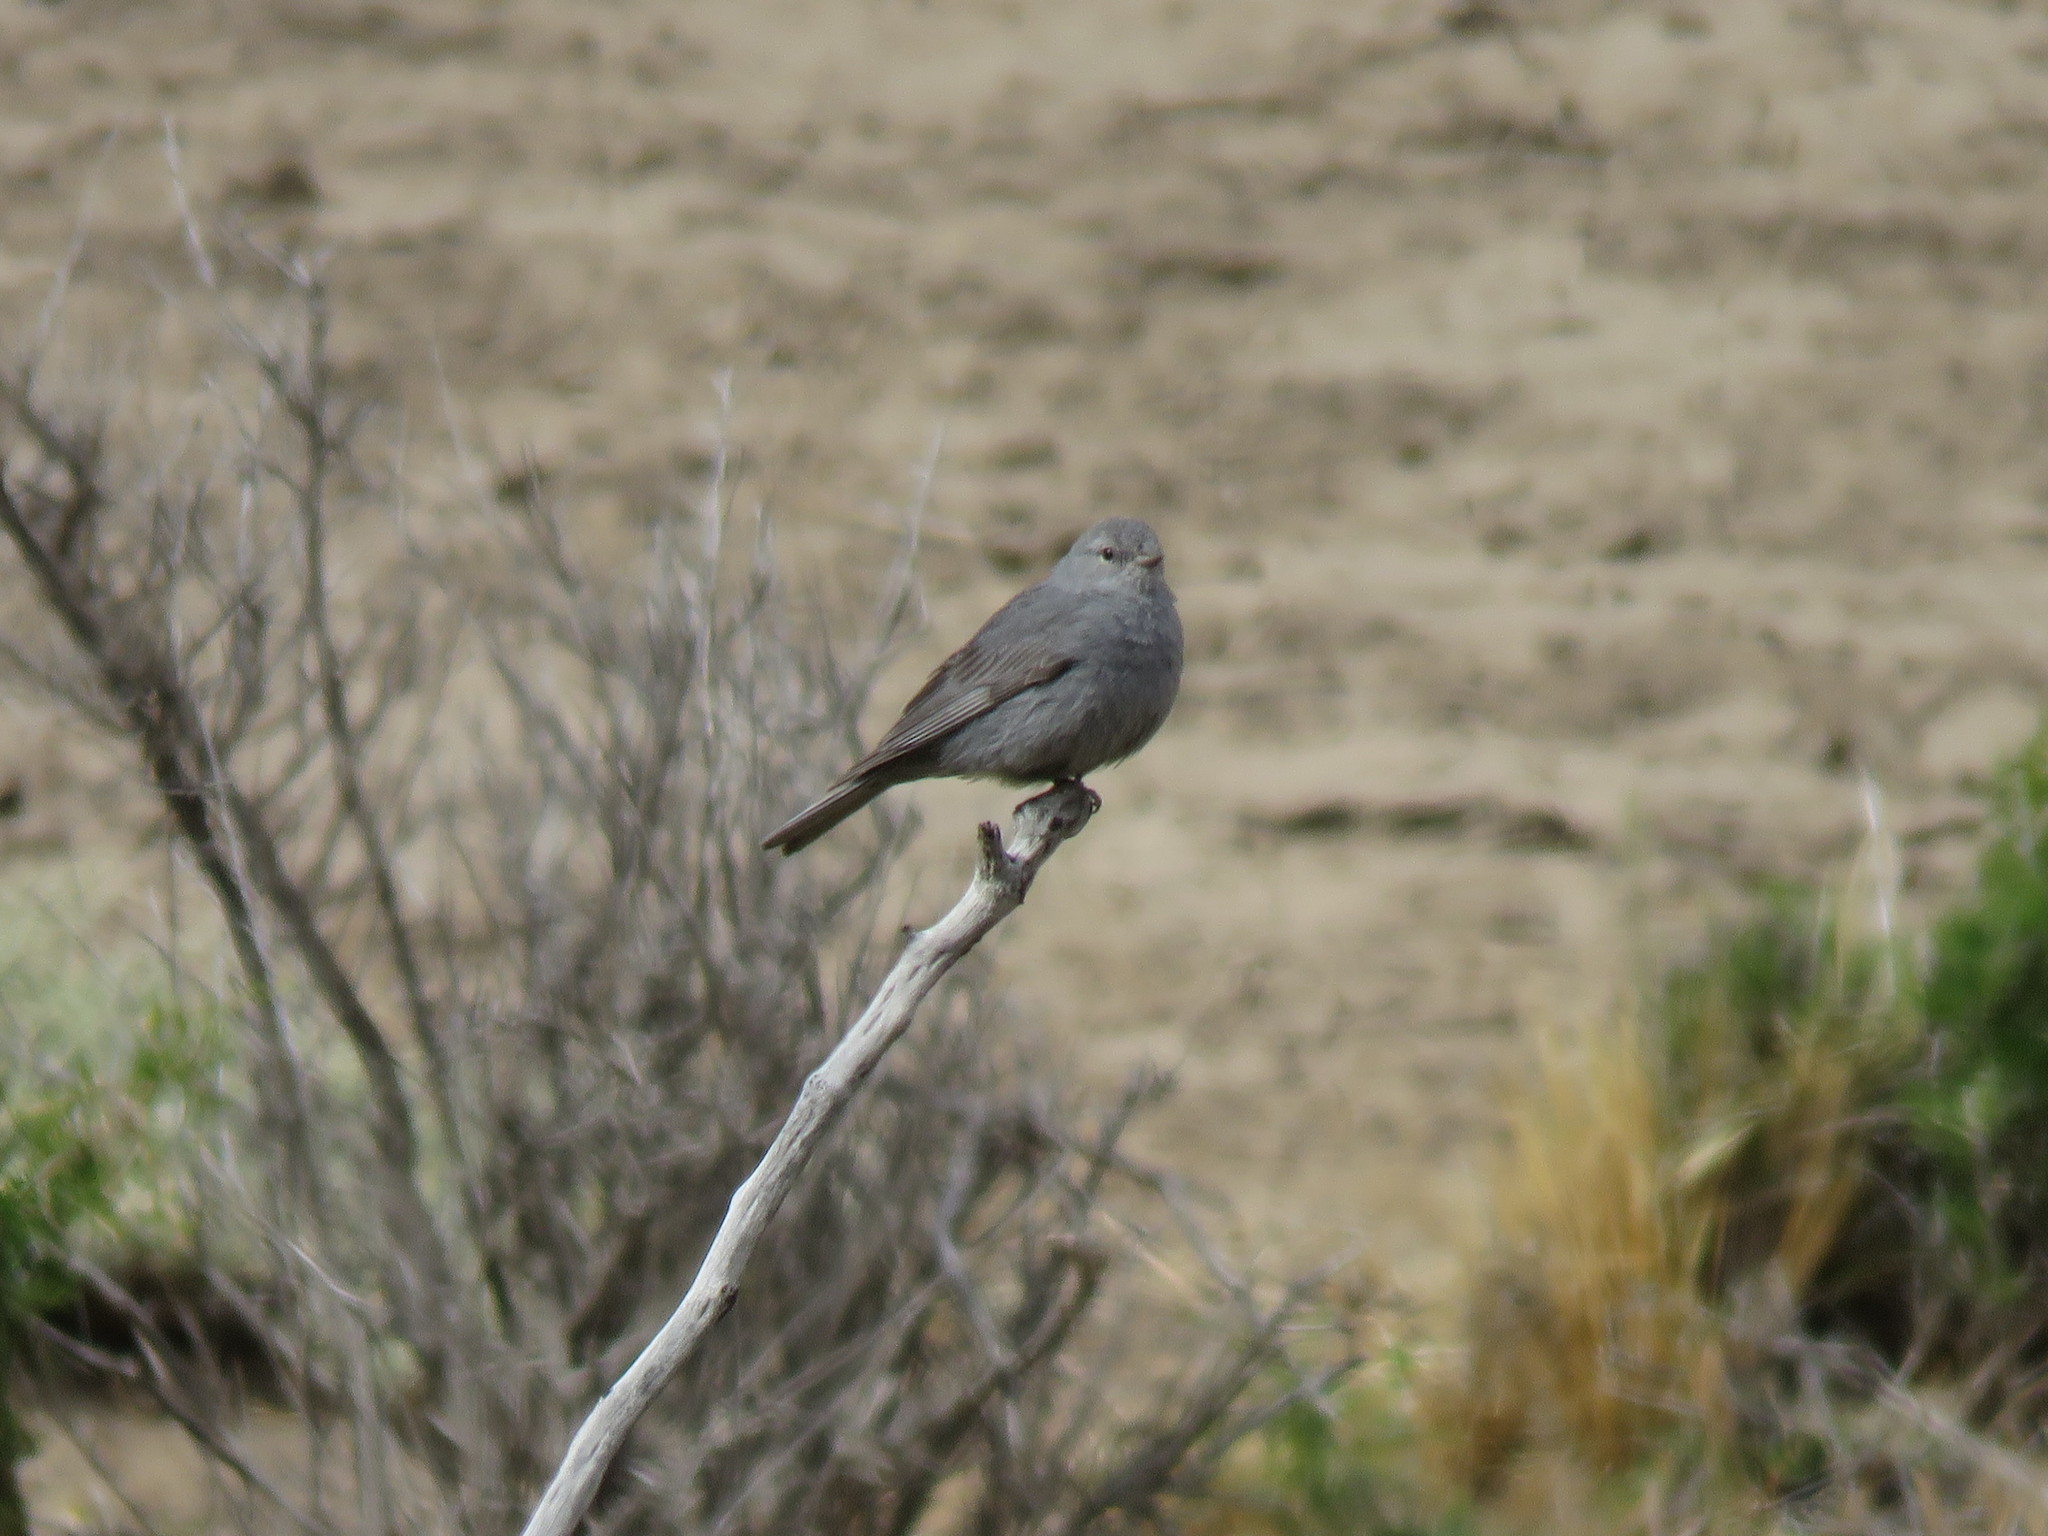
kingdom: Animalia
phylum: Chordata
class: Aves
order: Passeriformes
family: Thraupidae
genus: Geospizopsis
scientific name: Geospizopsis unicolor
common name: Plumbeous sierra-finch
